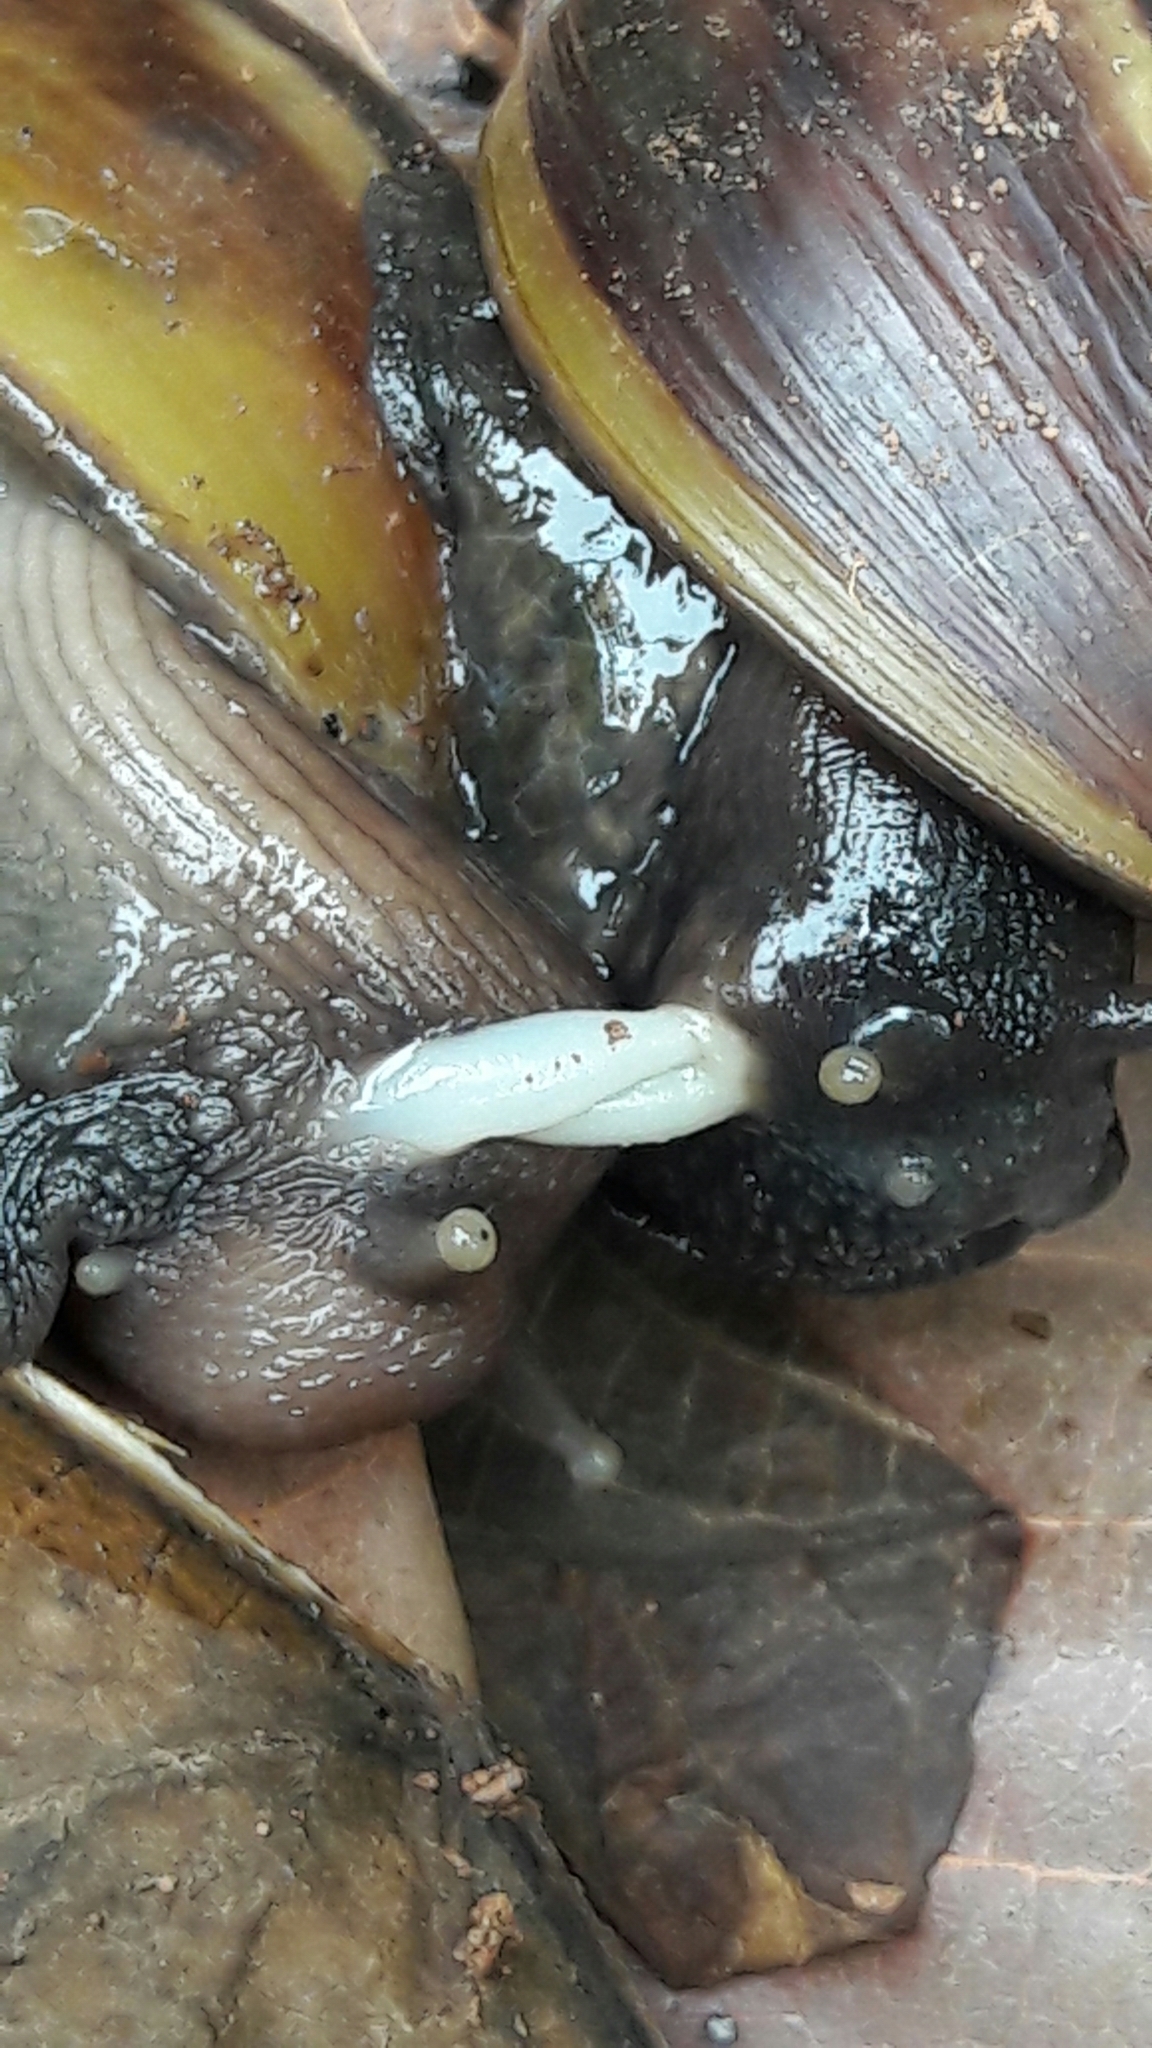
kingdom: Animalia
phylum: Mollusca
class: Gastropoda
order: Stylommatophora
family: Achatinidae
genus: Lissachatina
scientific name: Lissachatina fulica
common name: Giant african snail
